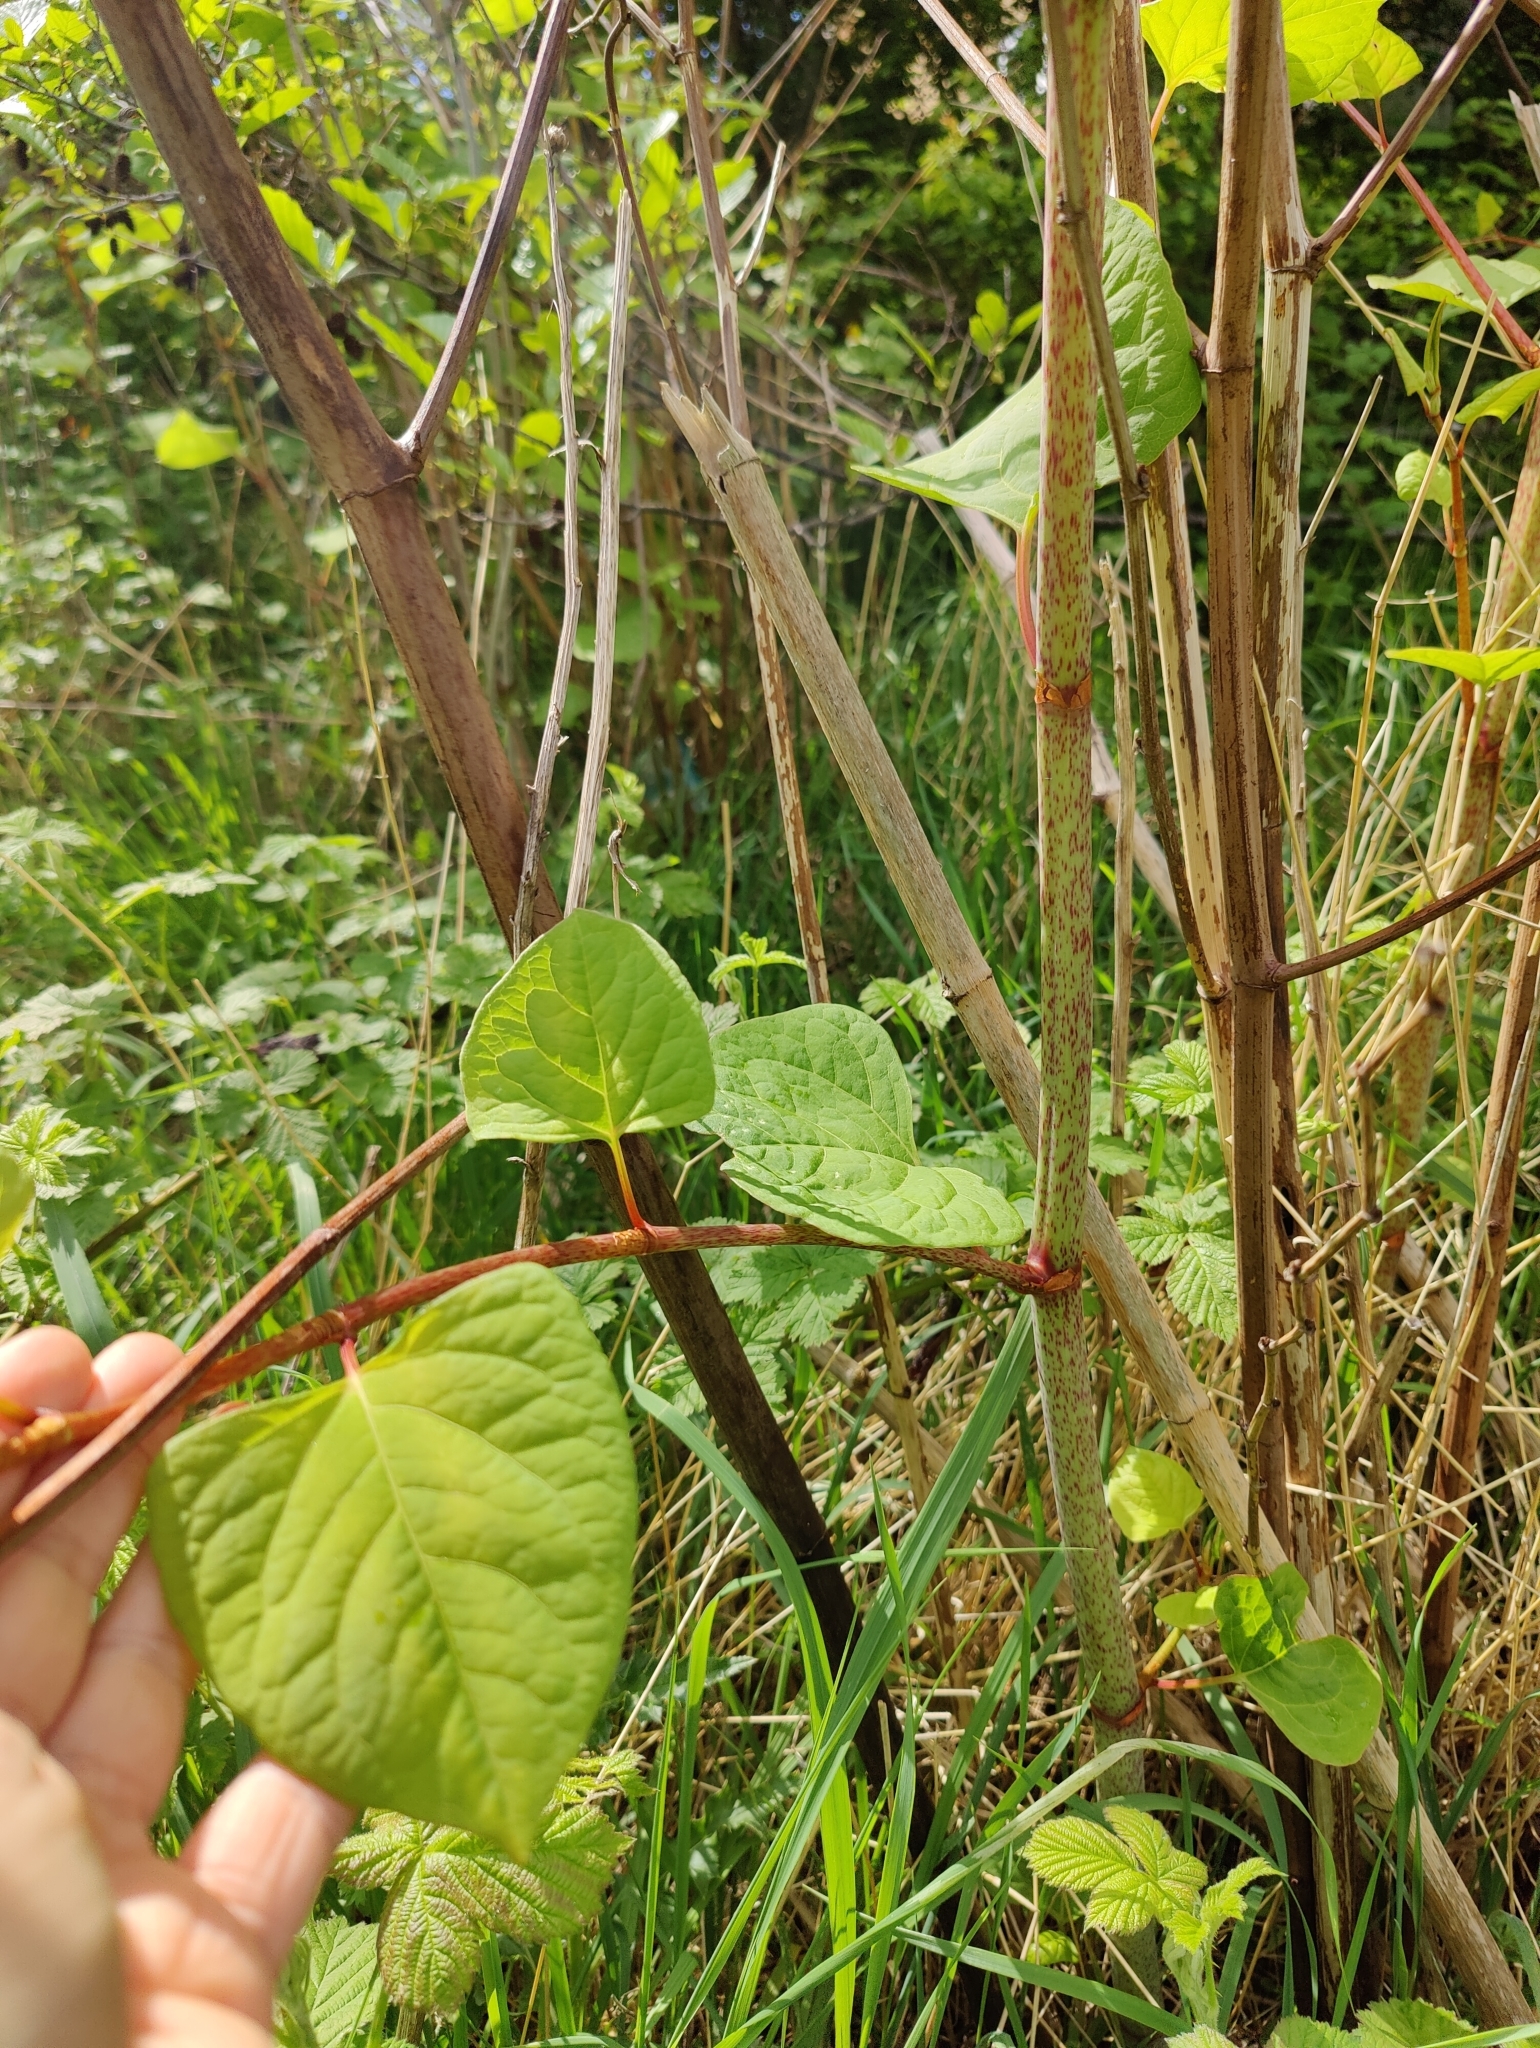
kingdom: Plantae
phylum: Tracheophyta
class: Magnoliopsida
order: Caryophyllales
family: Polygonaceae
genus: Reynoutria
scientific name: Reynoutria japonica
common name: Japanese knotweed
